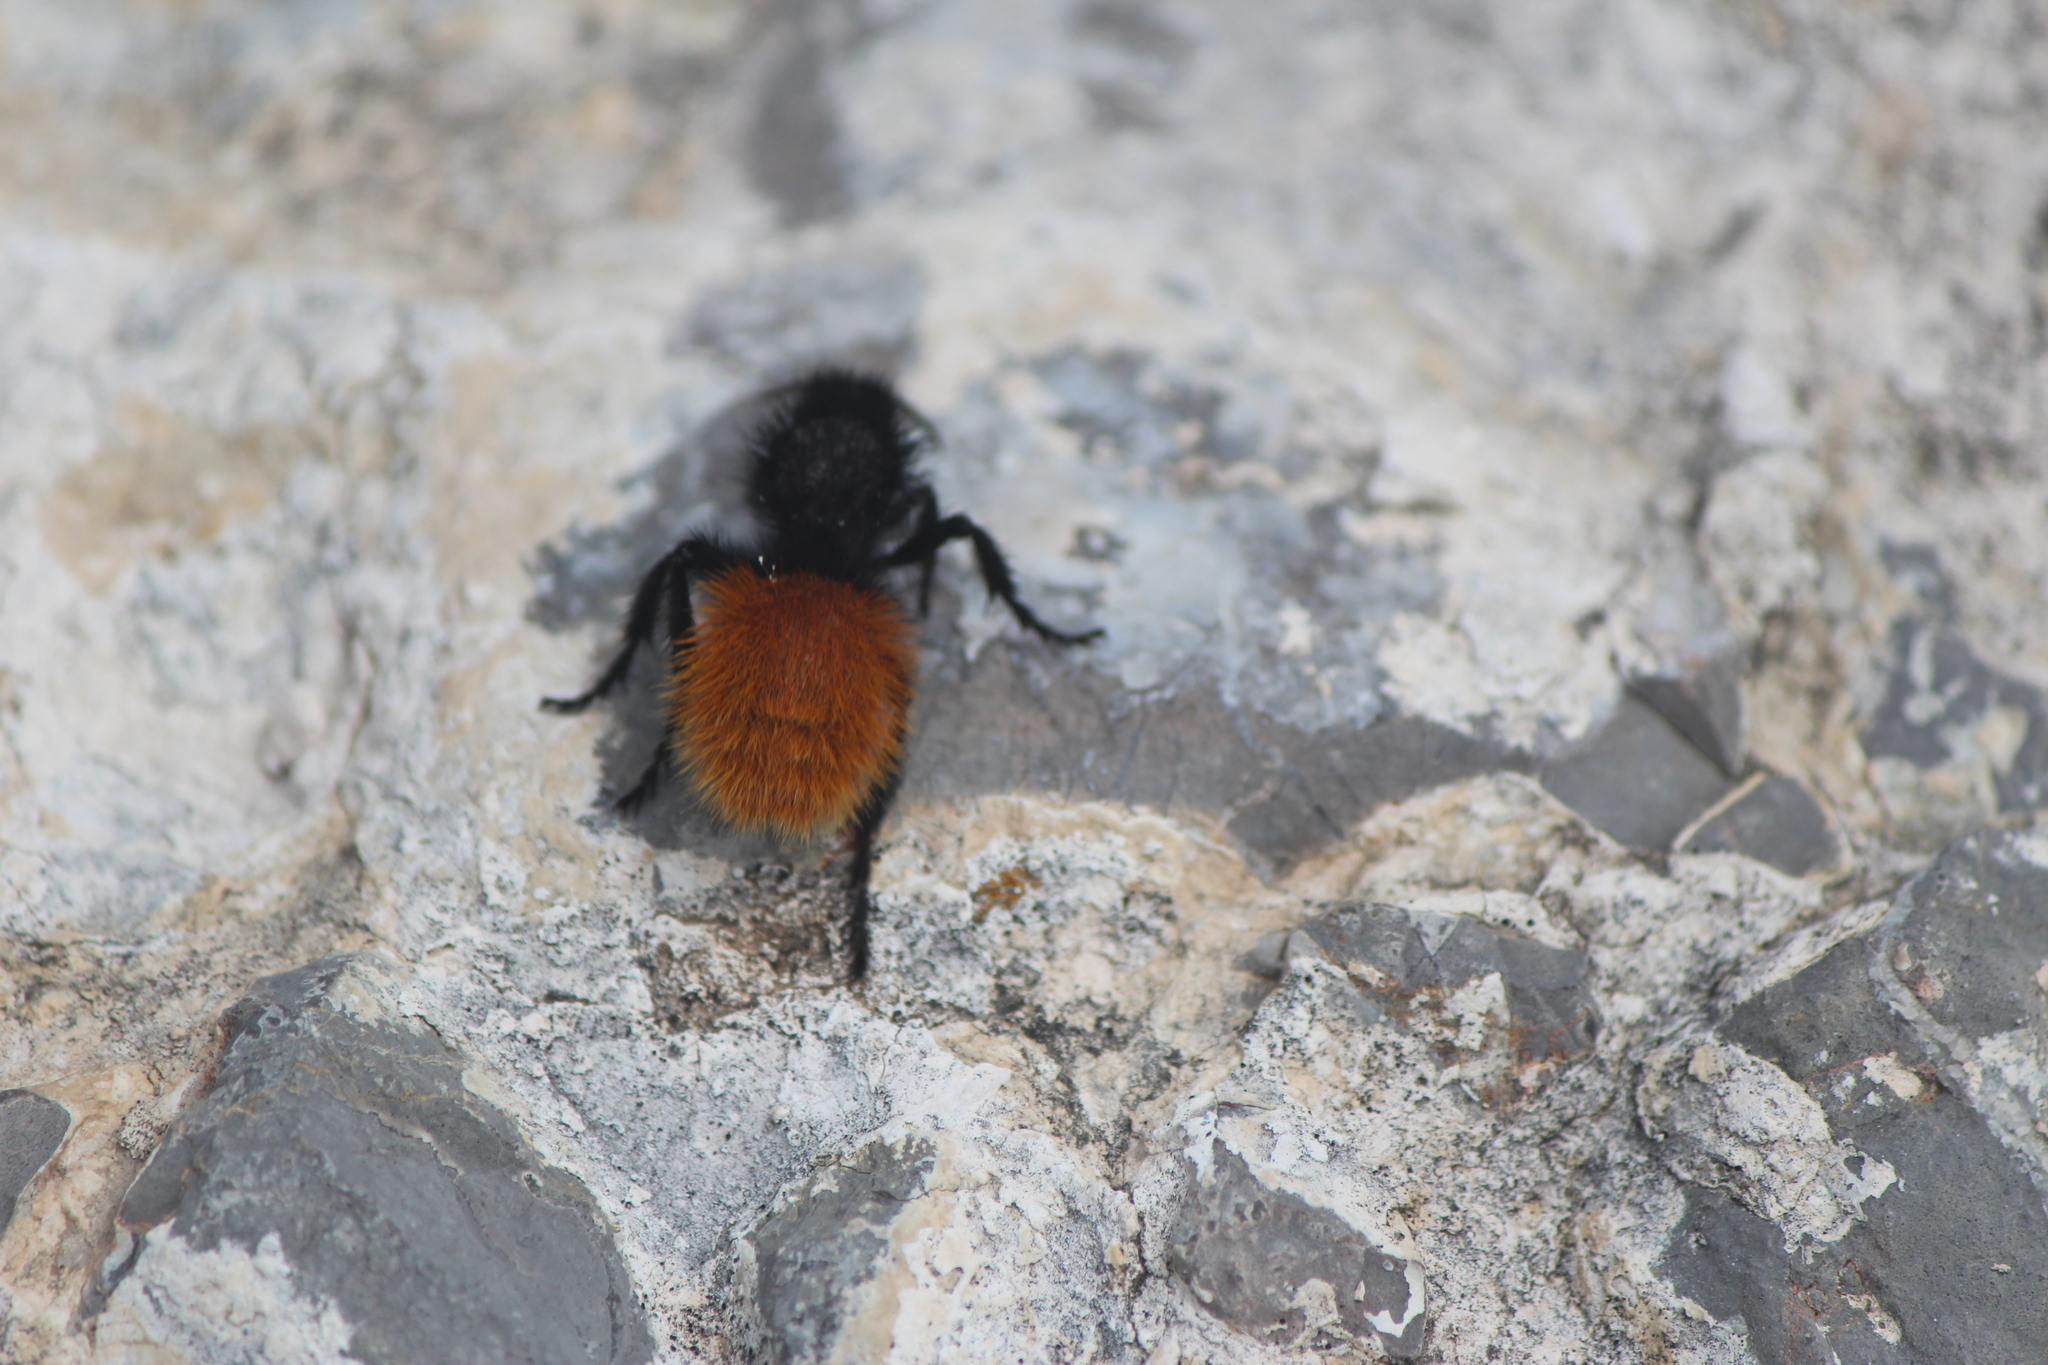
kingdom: Animalia
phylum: Arthropoda
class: Insecta
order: Hymenoptera
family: Mutillidae
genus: Dasymutilla
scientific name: Dasymutilla
